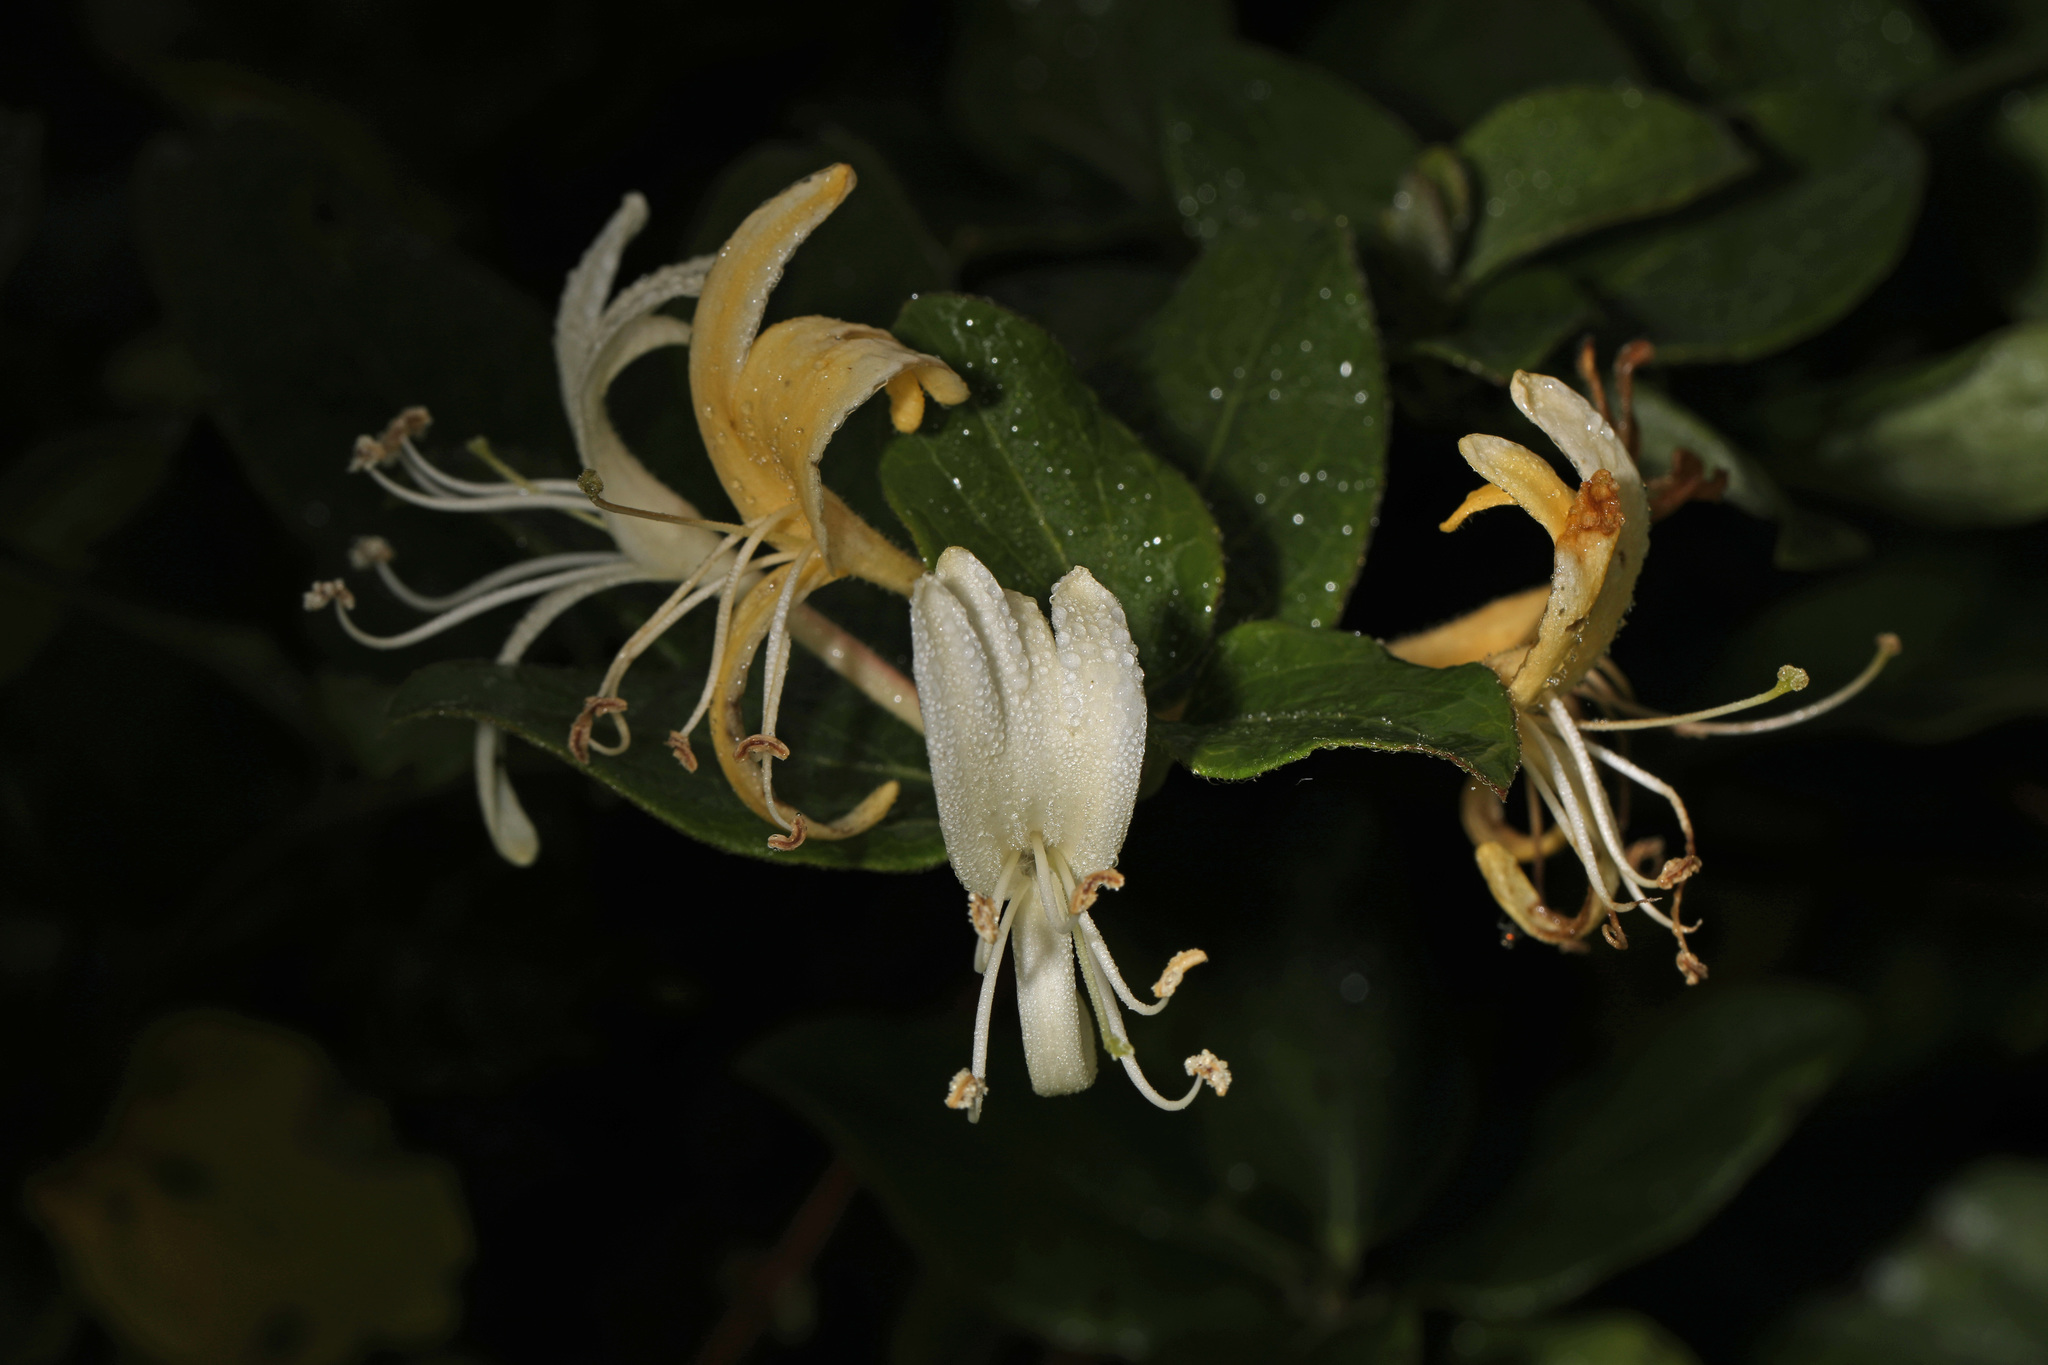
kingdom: Plantae
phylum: Tracheophyta
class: Magnoliopsida
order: Dipsacales
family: Caprifoliaceae
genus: Lonicera
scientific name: Lonicera japonica
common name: Japanese honeysuckle
